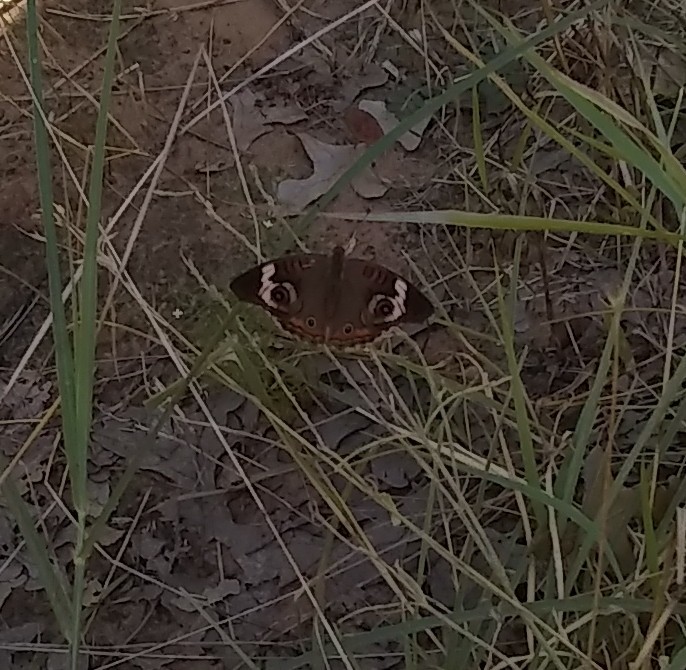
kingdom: Animalia
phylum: Arthropoda
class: Insecta
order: Lepidoptera
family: Nymphalidae
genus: Junonia
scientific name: Junonia coenia
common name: Common buckeye
